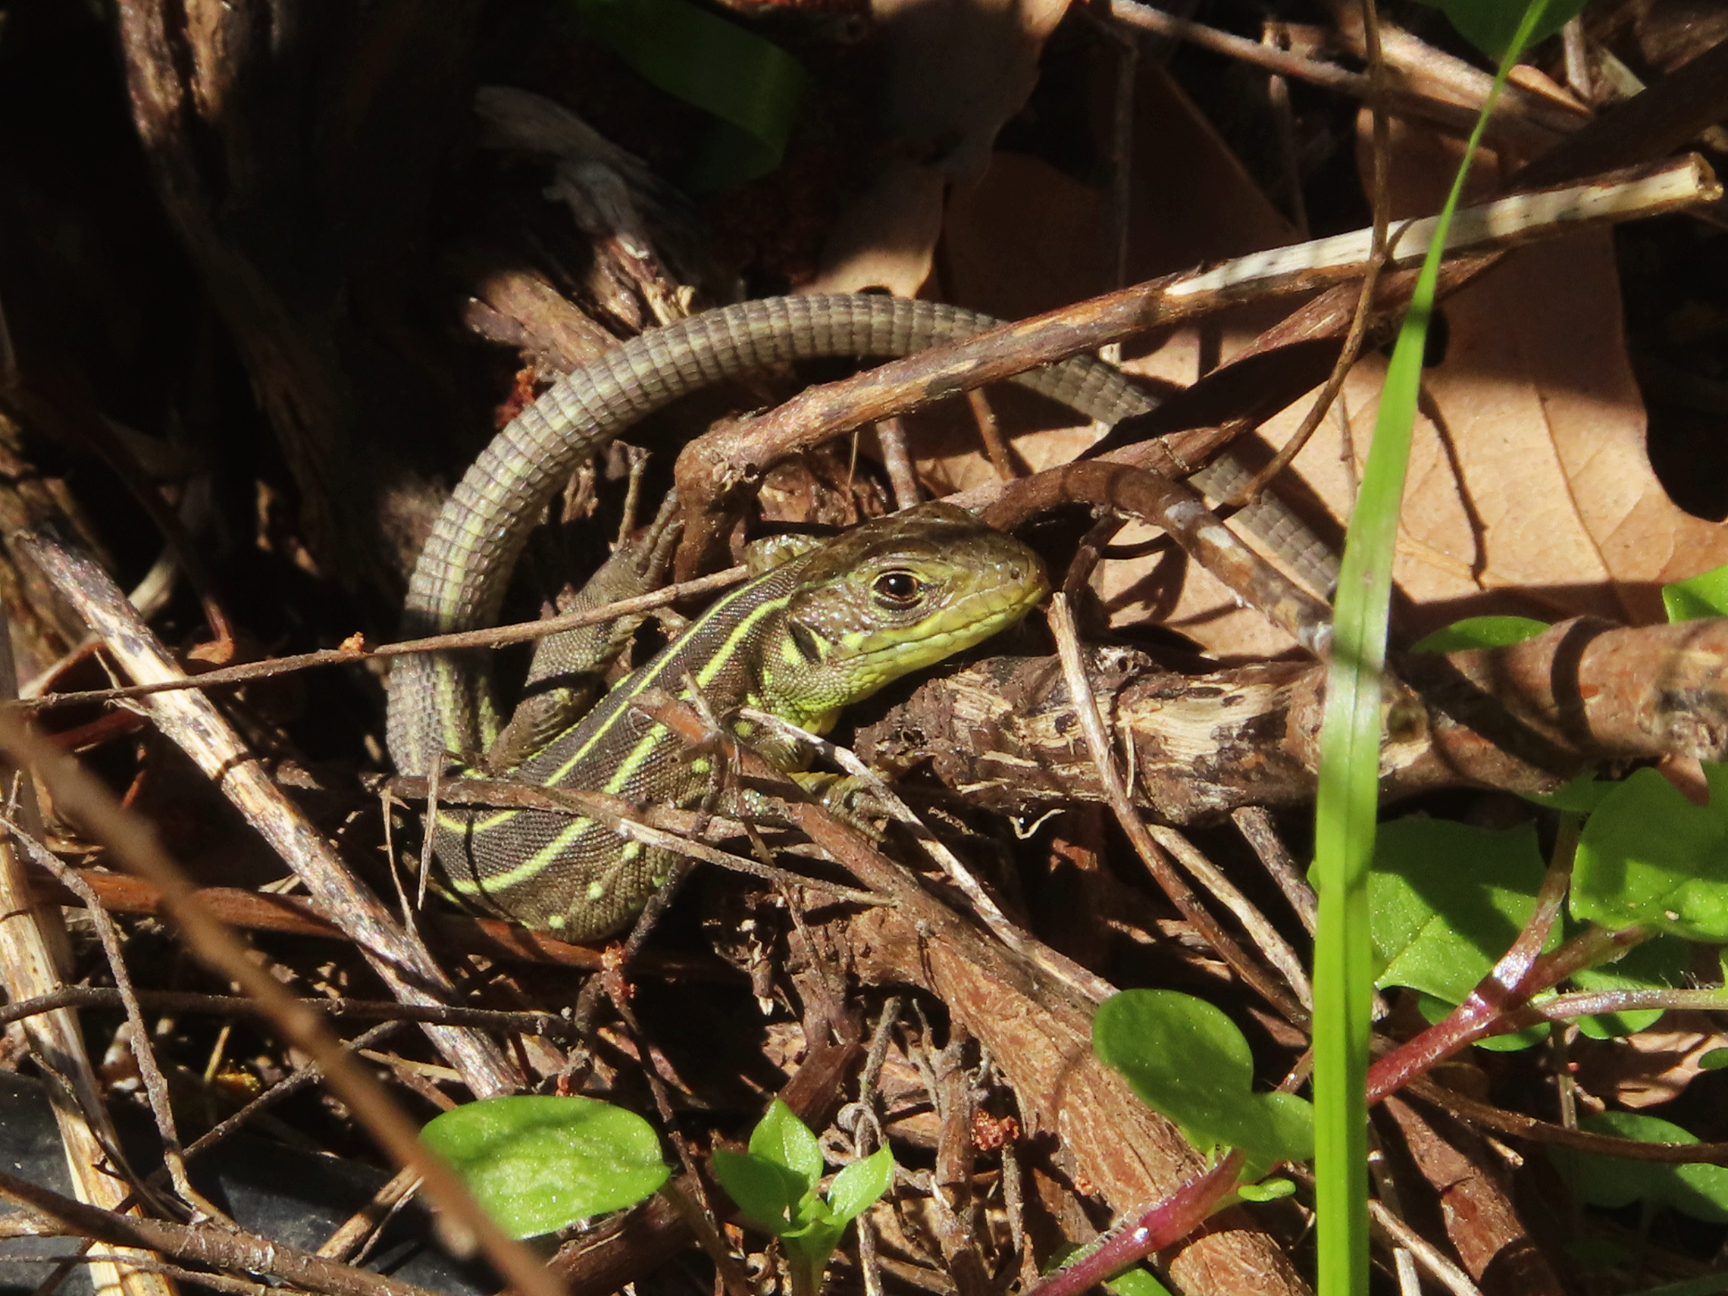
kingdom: Animalia
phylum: Chordata
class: Squamata
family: Lacertidae
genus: Lacerta
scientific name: Lacerta trilineata
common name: Balkan green lizard
